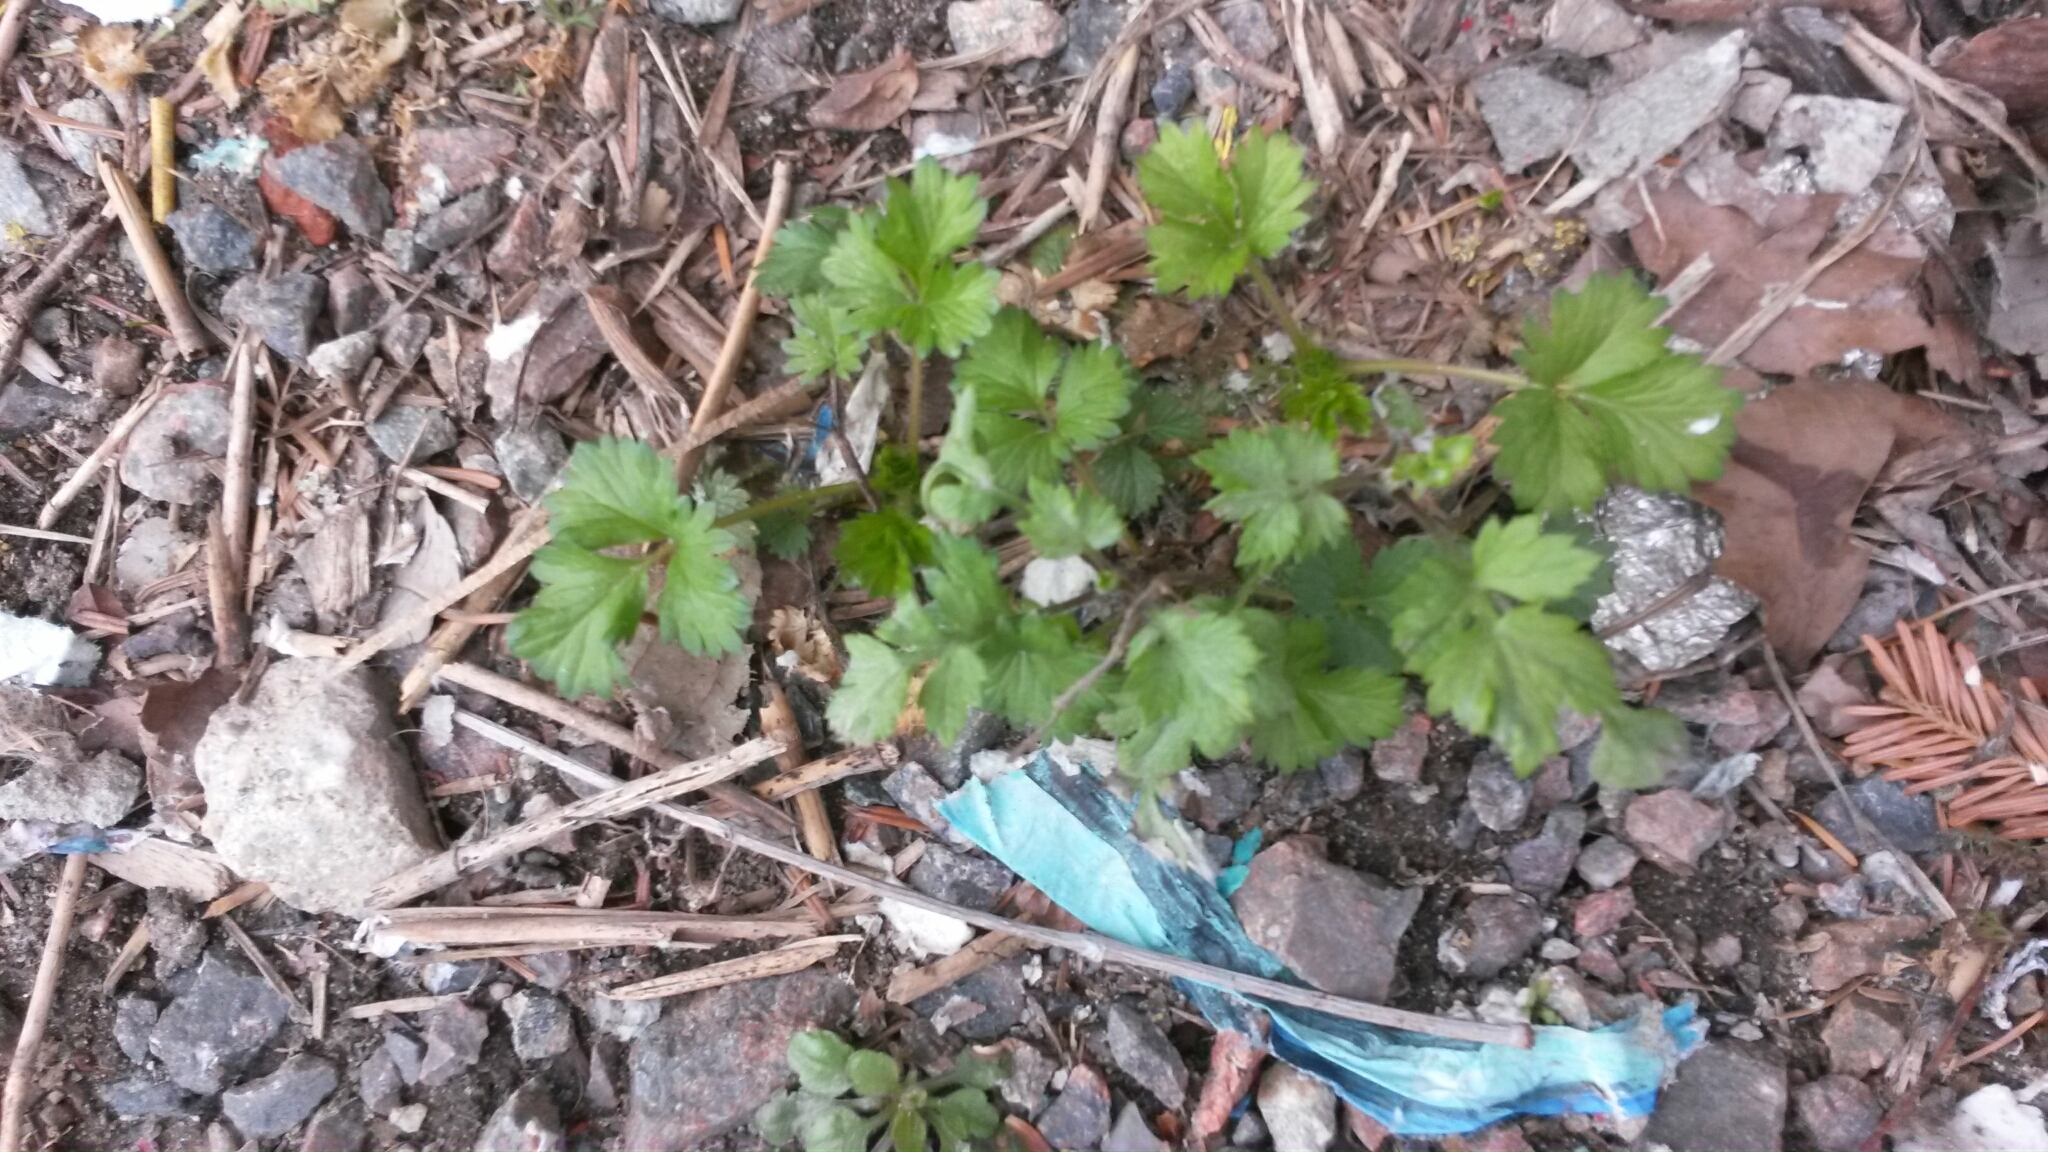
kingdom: Plantae
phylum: Tracheophyta
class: Magnoliopsida
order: Rosales
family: Rosaceae
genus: Fragaria
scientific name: Fragaria vesca
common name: Wild strawberry
